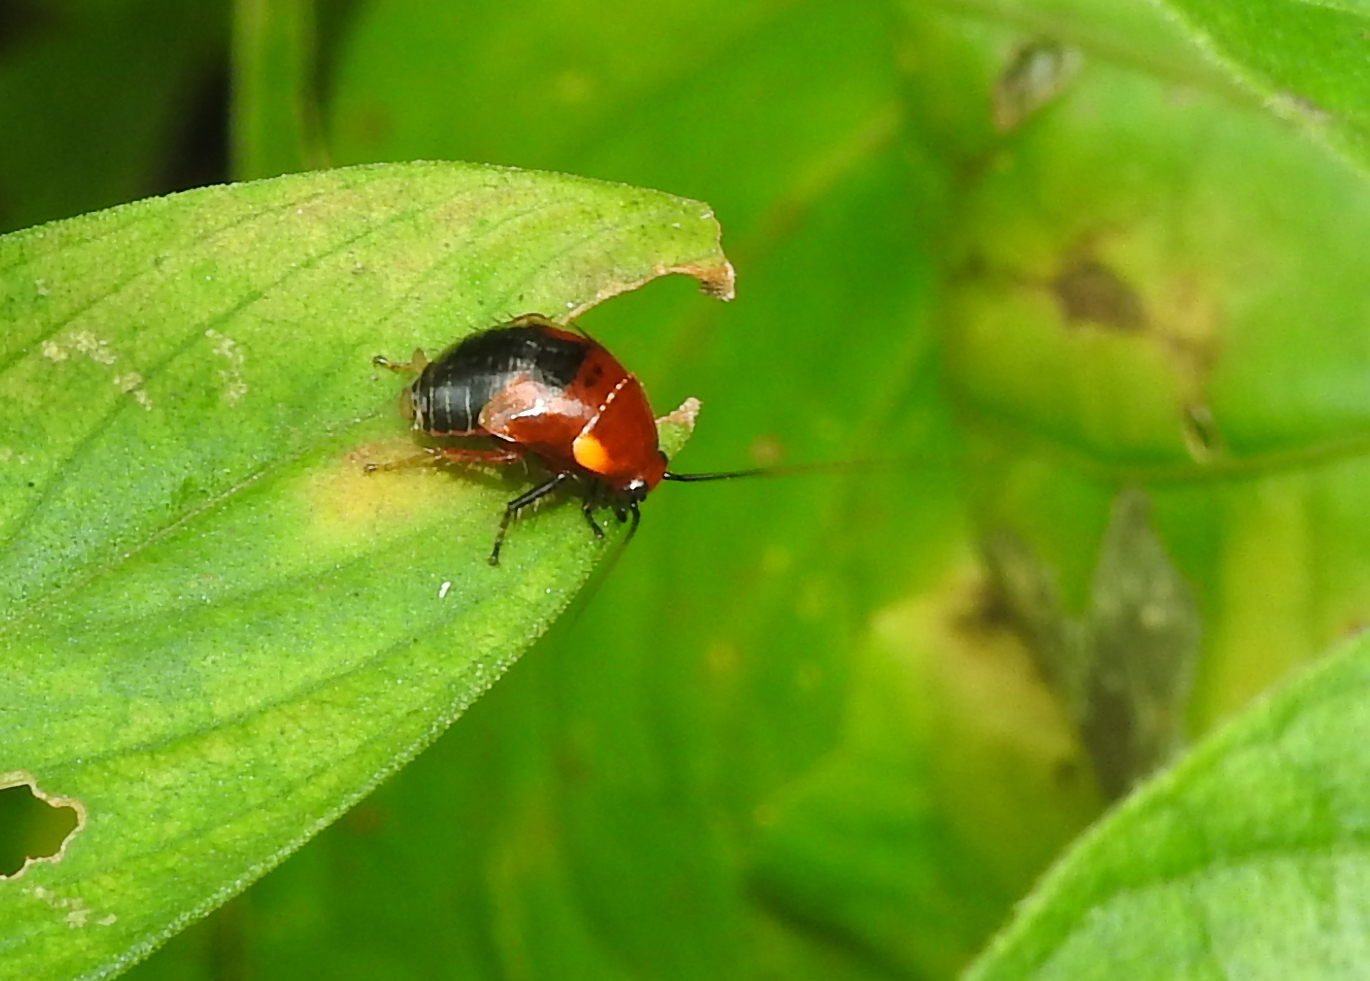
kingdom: Animalia
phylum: Arthropoda
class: Insecta
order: Blattodea
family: Ectobiidae
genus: Hemithyrsocera
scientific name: Hemithyrsocera palliata
